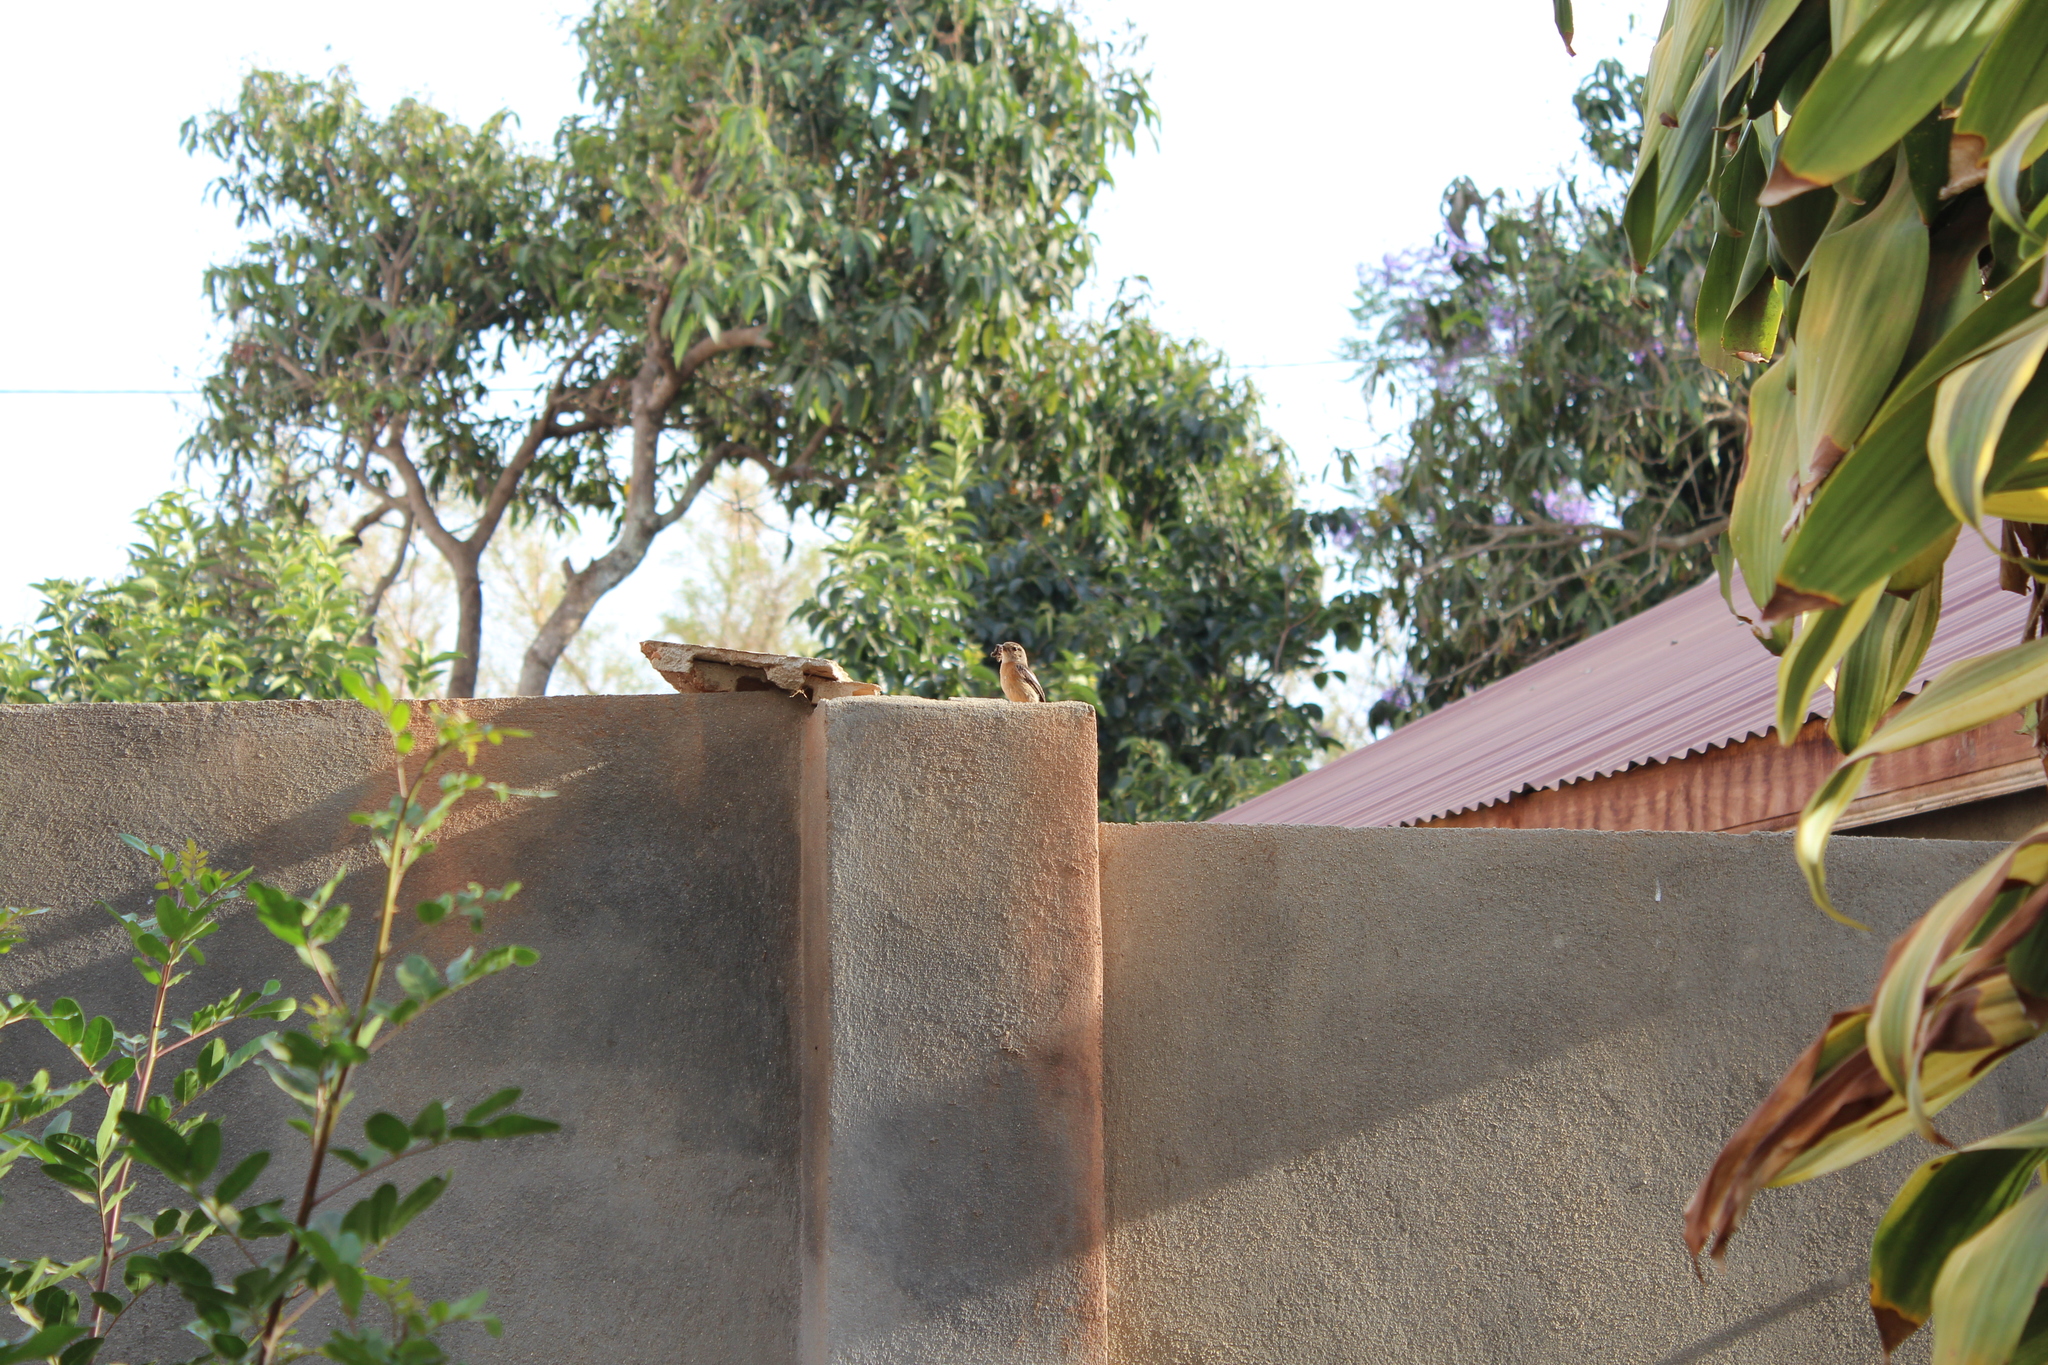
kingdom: Animalia
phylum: Chordata
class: Aves
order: Passeriformes
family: Muscicapidae
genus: Saxicola
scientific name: Saxicola torquatus
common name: African stonechat
